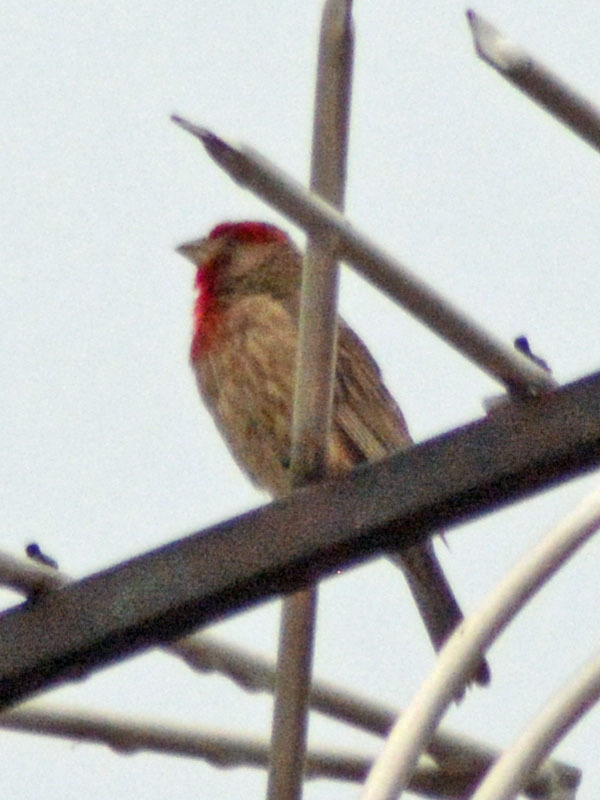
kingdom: Animalia
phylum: Chordata
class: Aves
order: Passeriformes
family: Fringillidae
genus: Haemorhous
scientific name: Haemorhous mexicanus
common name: House finch
